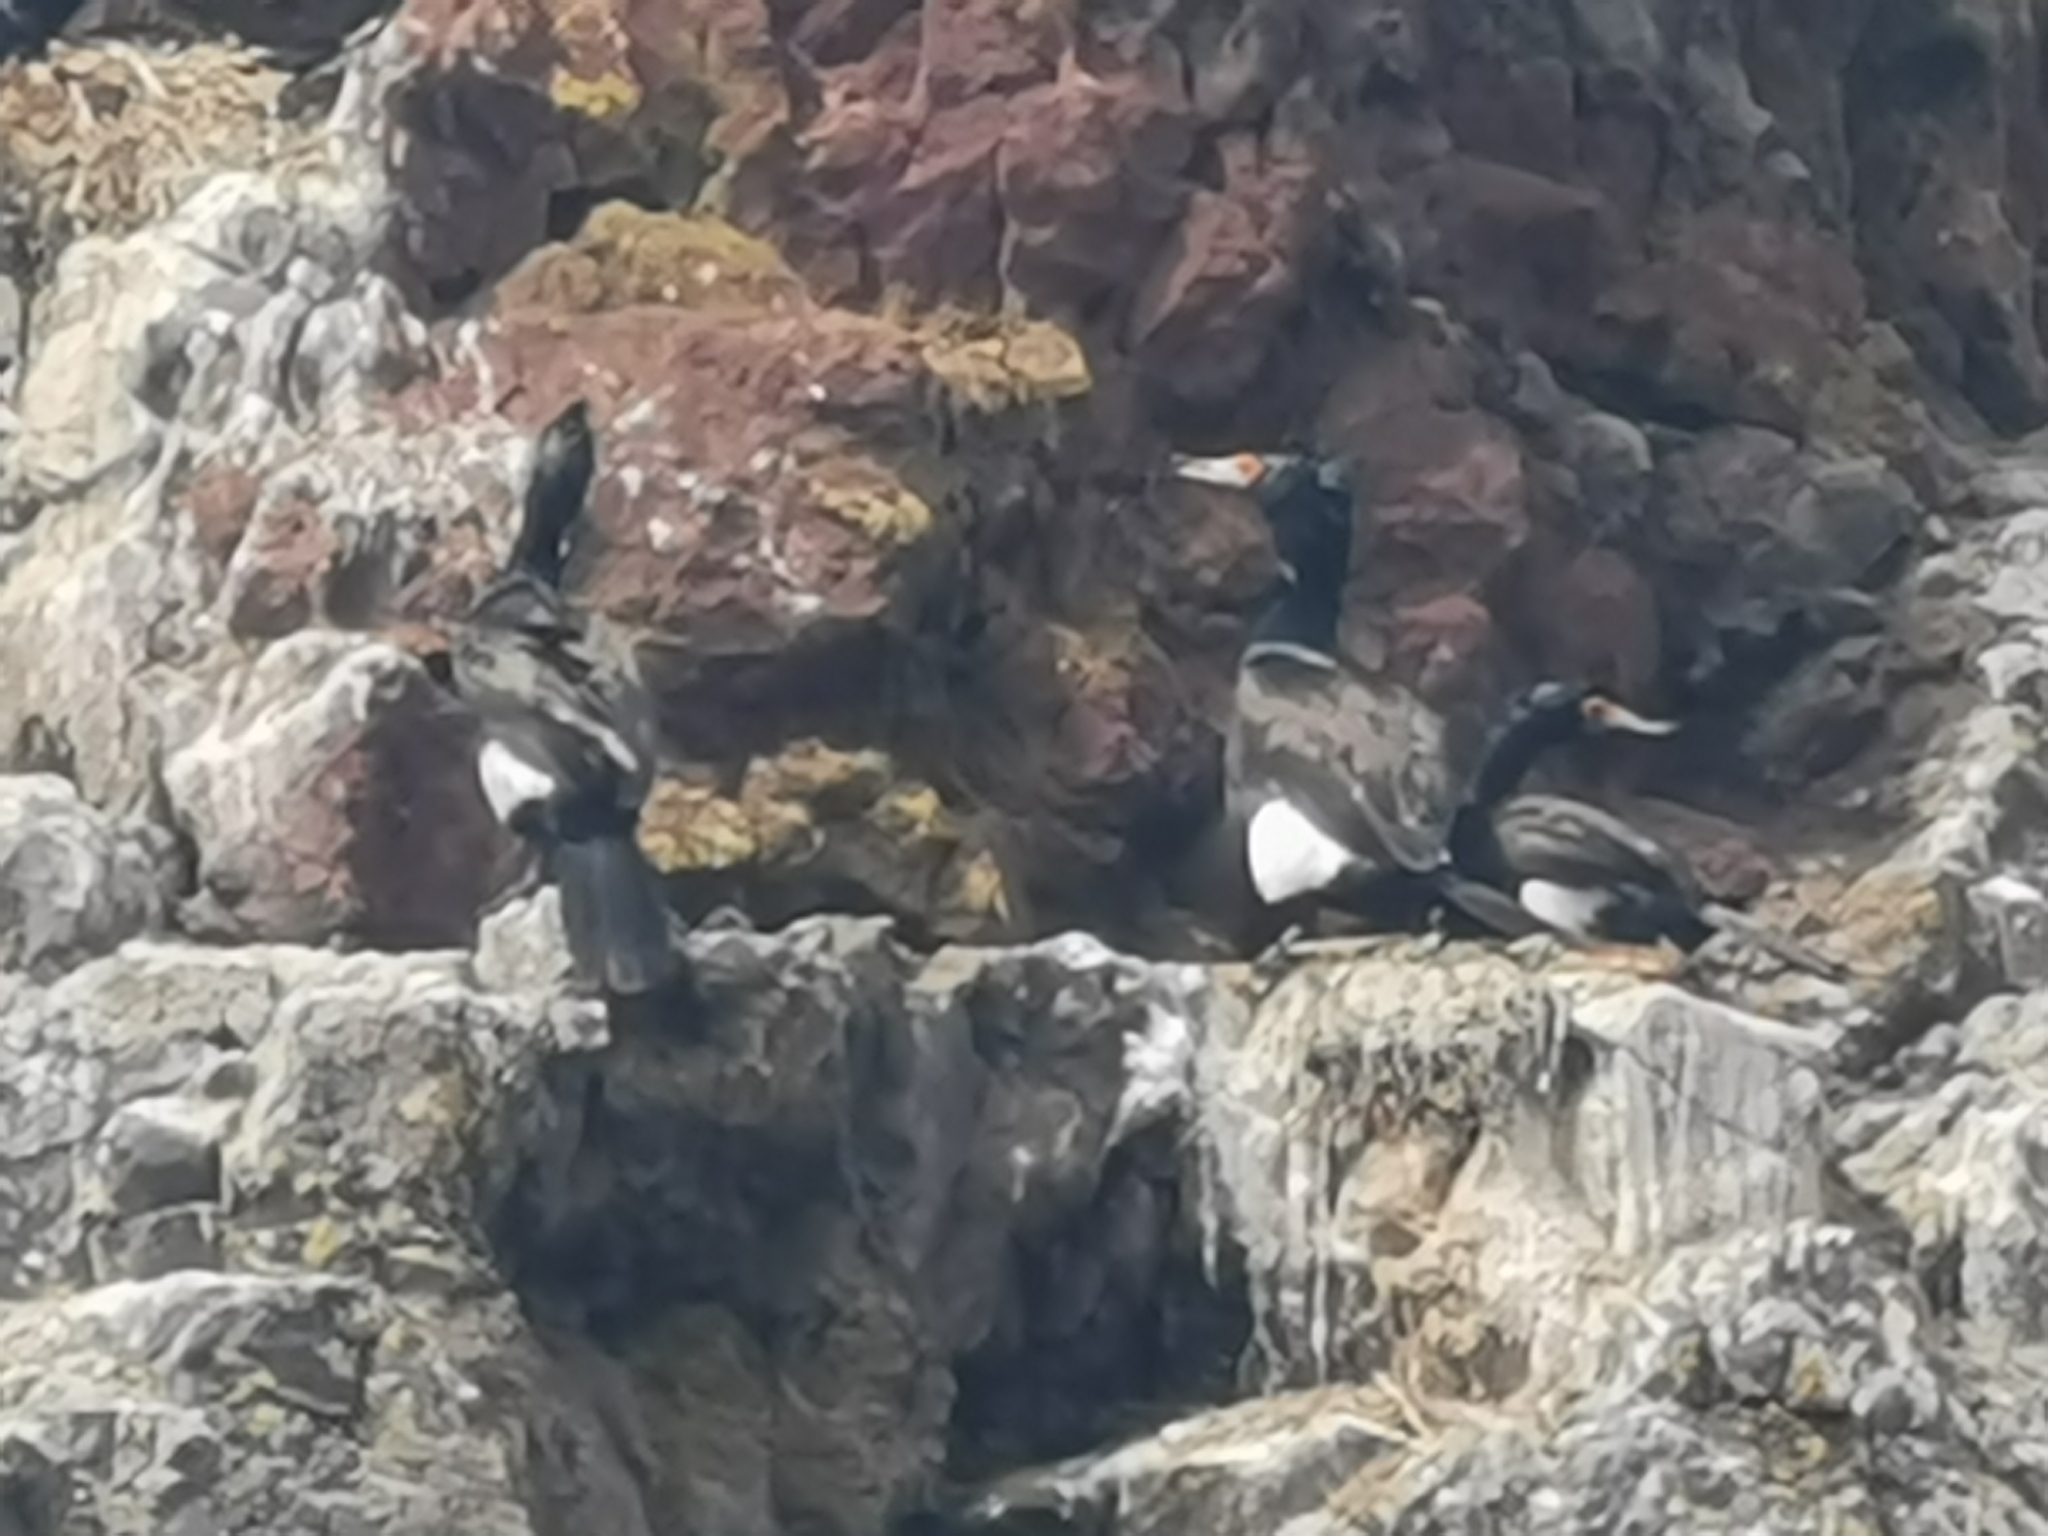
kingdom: Animalia
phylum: Chordata
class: Aves
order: Suliformes
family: Phalacrocoracidae
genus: Phalacrocorax
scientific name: Phalacrocorax urile
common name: Red-faced cormorant
